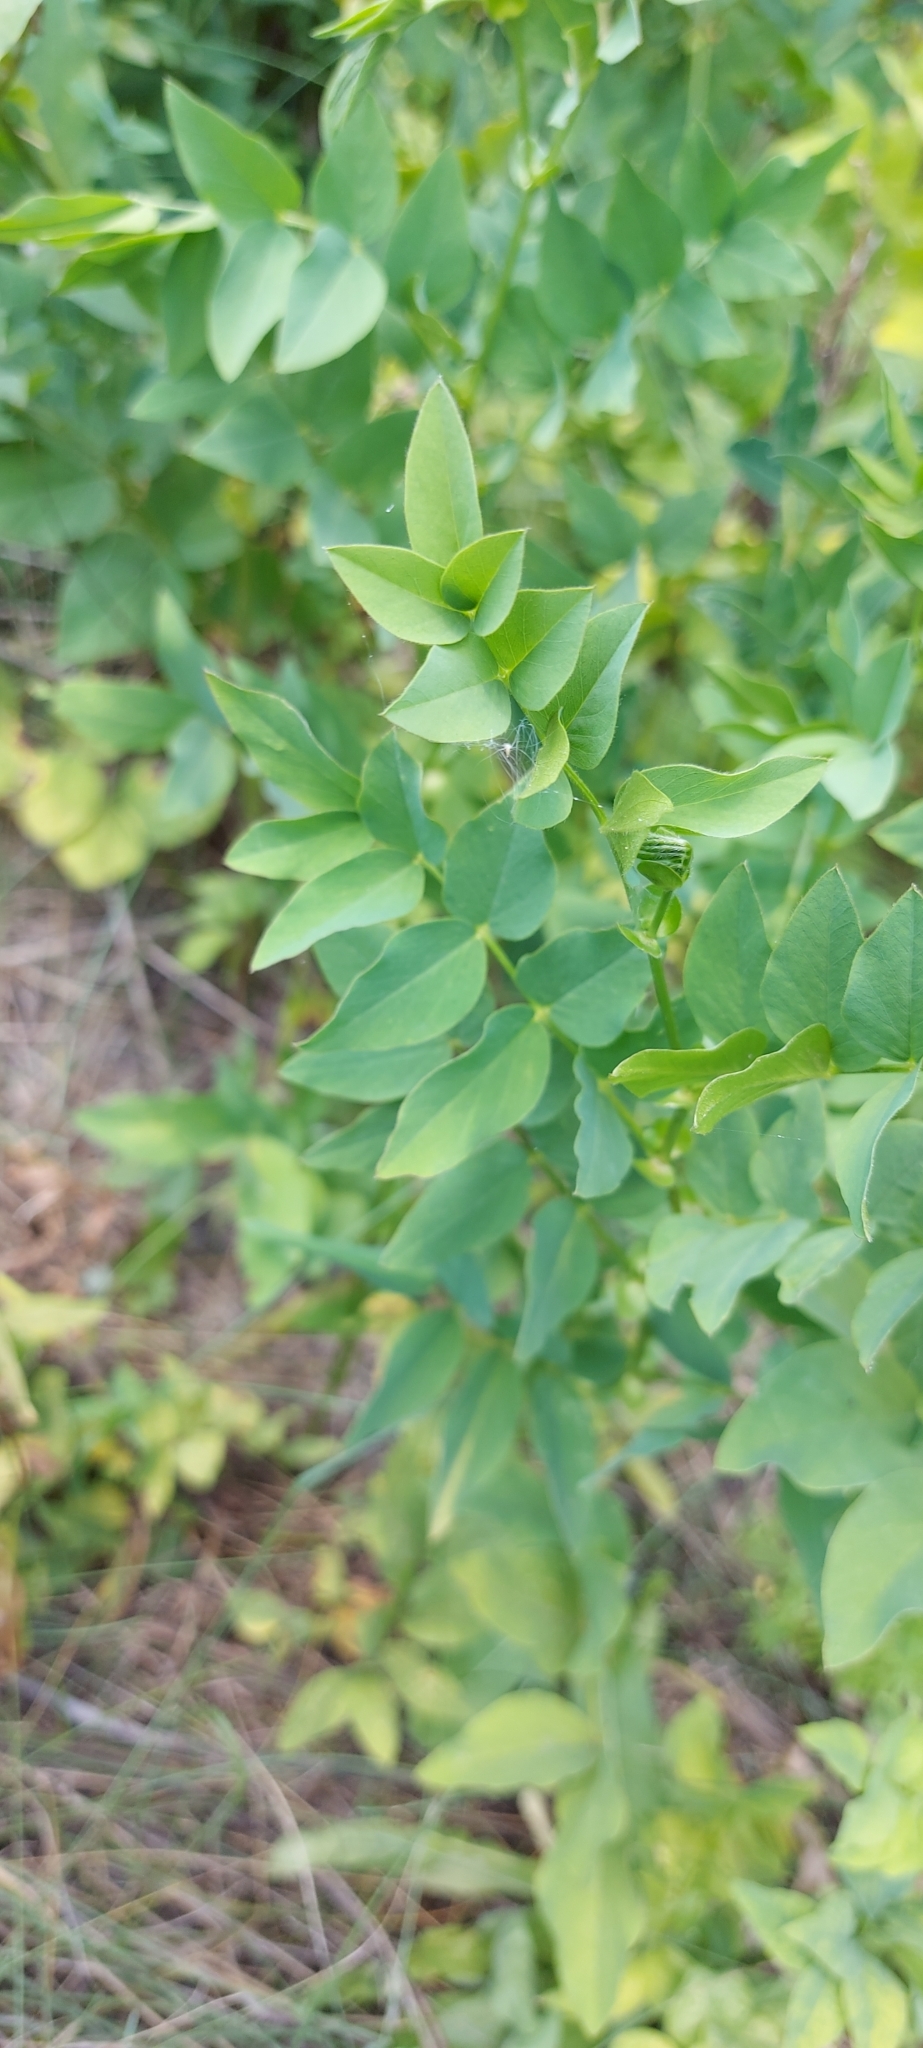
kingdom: Plantae
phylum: Tracheophyta
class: Magnoliopsida
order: Fabales
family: Fabaceae
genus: Galega
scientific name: Galega orientalis
